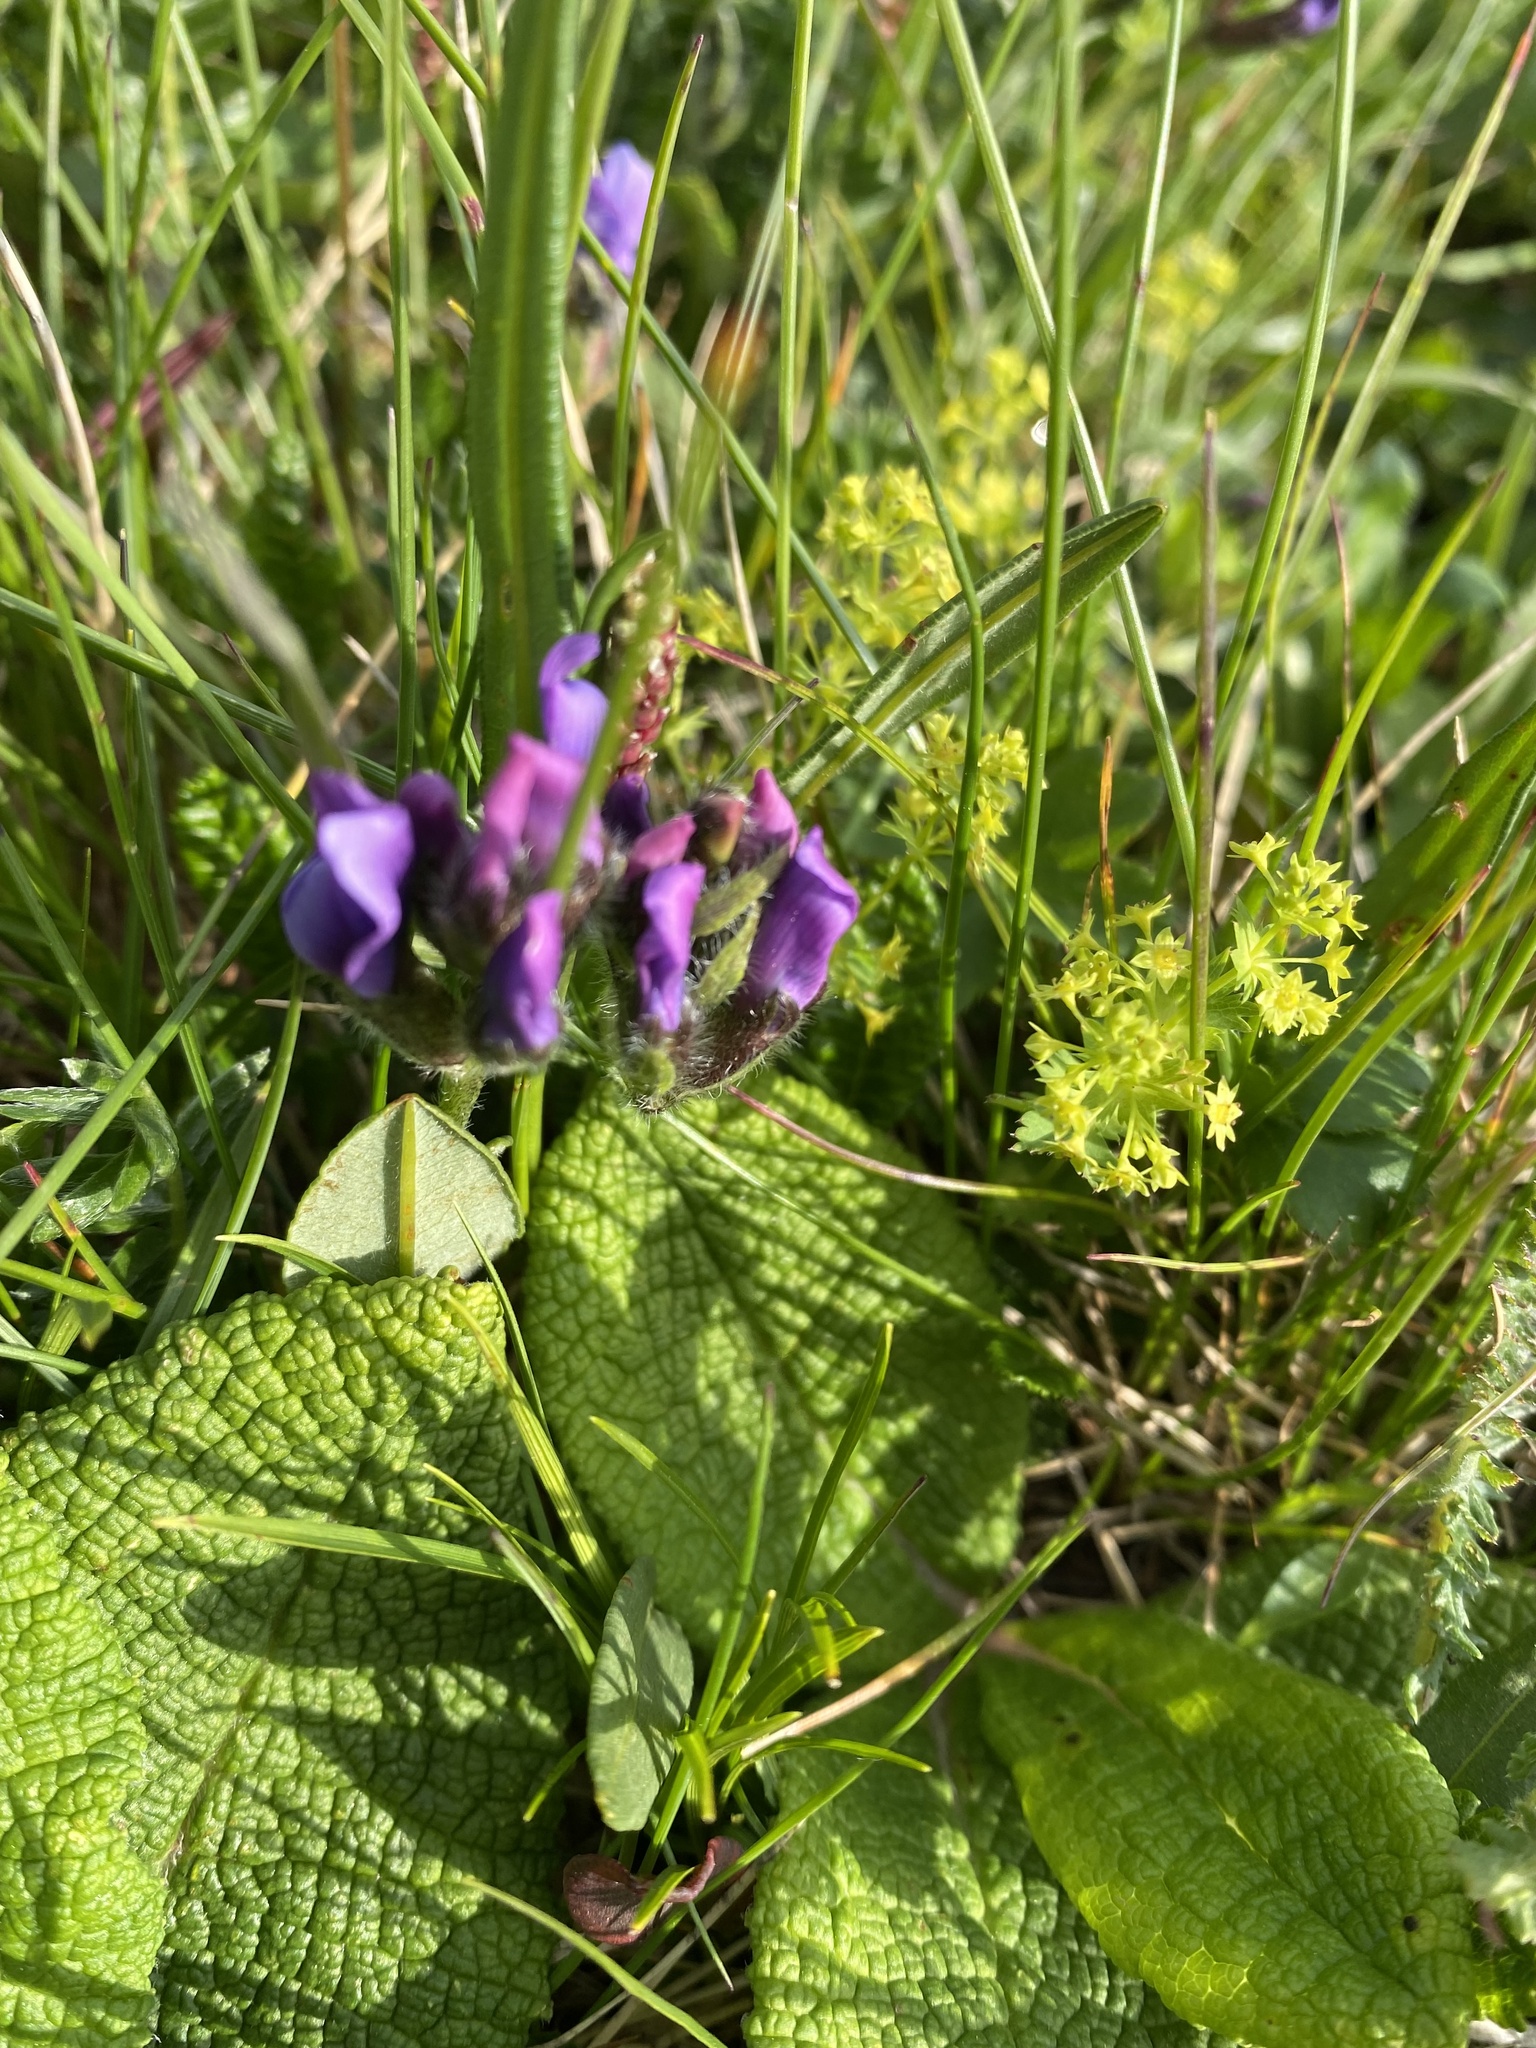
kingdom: Plantae
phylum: Tracheophyta
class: Magnoliopsida
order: Fabales
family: Fabaceae
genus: Oxytropis
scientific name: Oxytropis lazica
